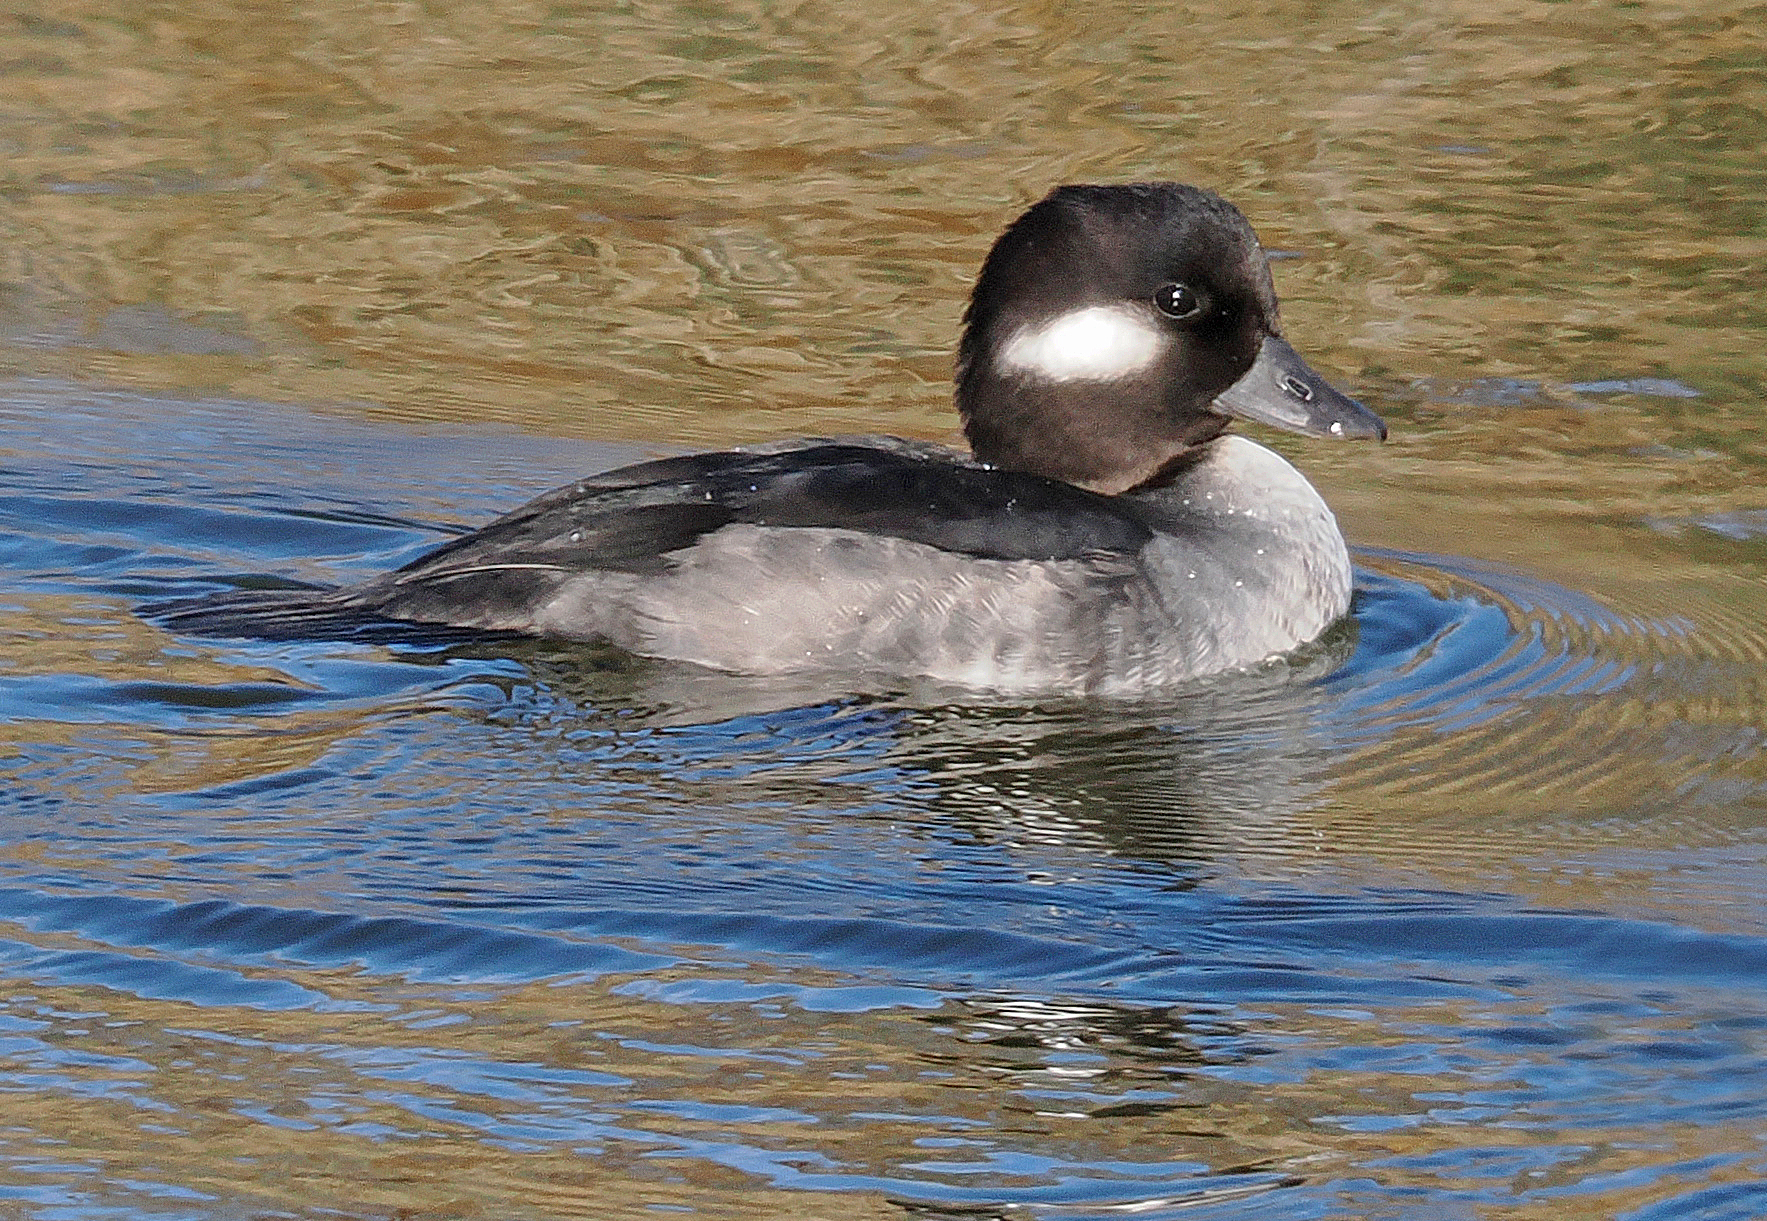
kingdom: Animalia
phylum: Chordata
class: Aves
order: Anseriformes
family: Anatidae
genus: Bucephala
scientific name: Bucephala albeola
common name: Bufflehead
